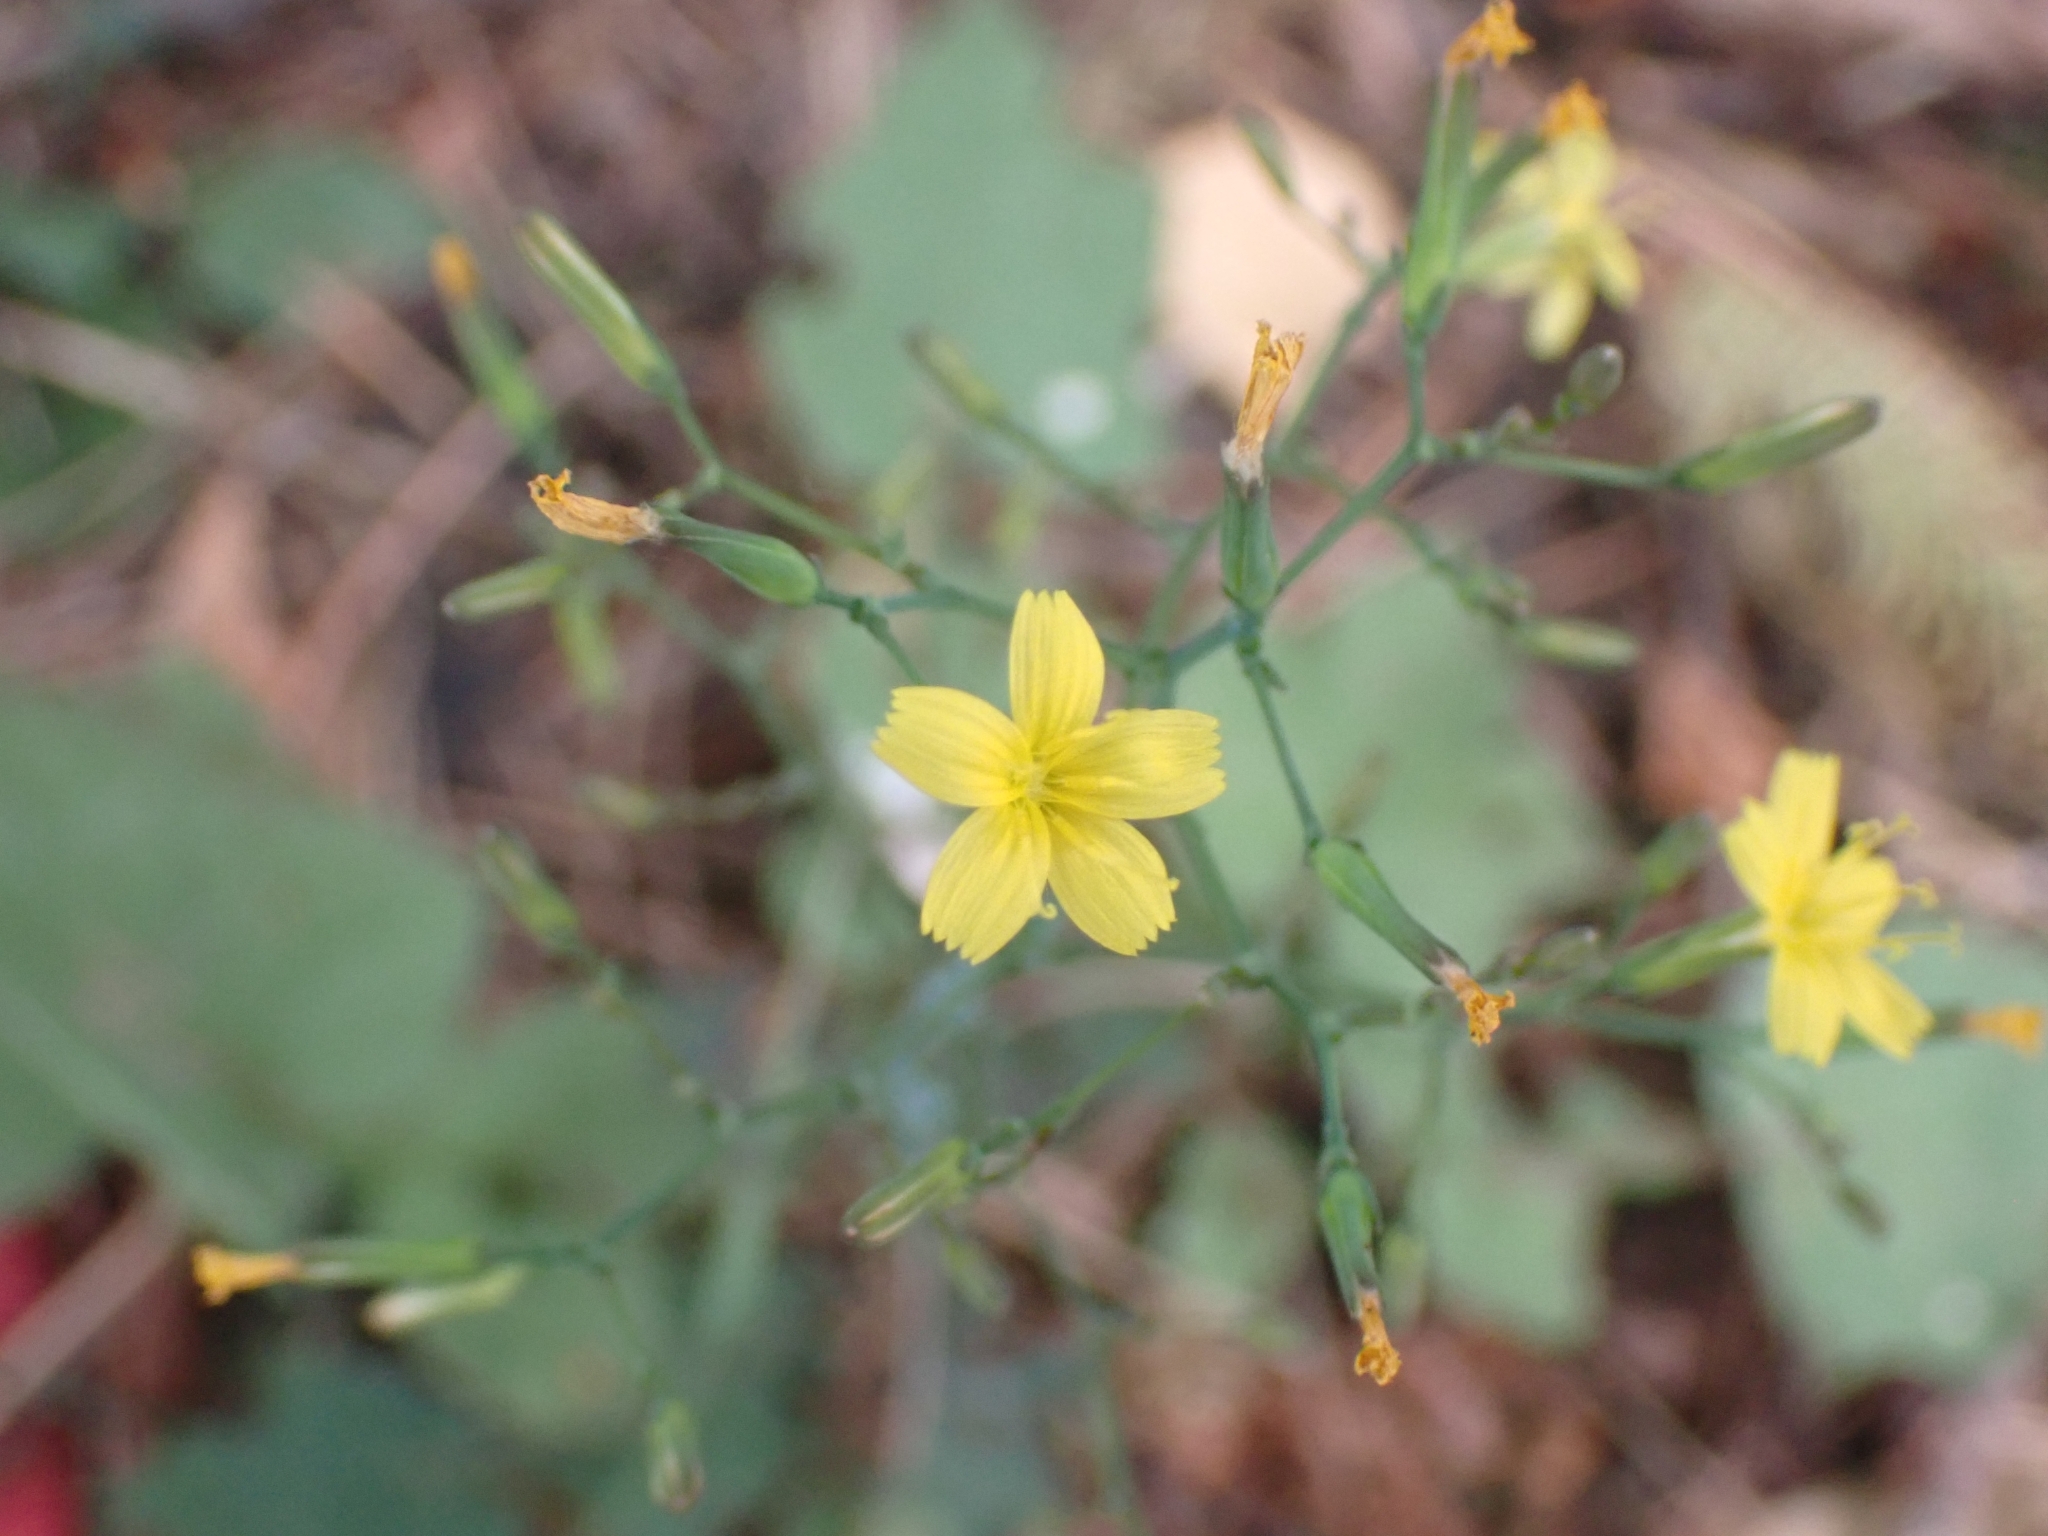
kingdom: Plantae
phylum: Tracheophyta
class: Magnoliopsida
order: Asterales
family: Asteraceae
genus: Mycelis
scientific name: Mycelis muralis
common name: Wall lettuce
